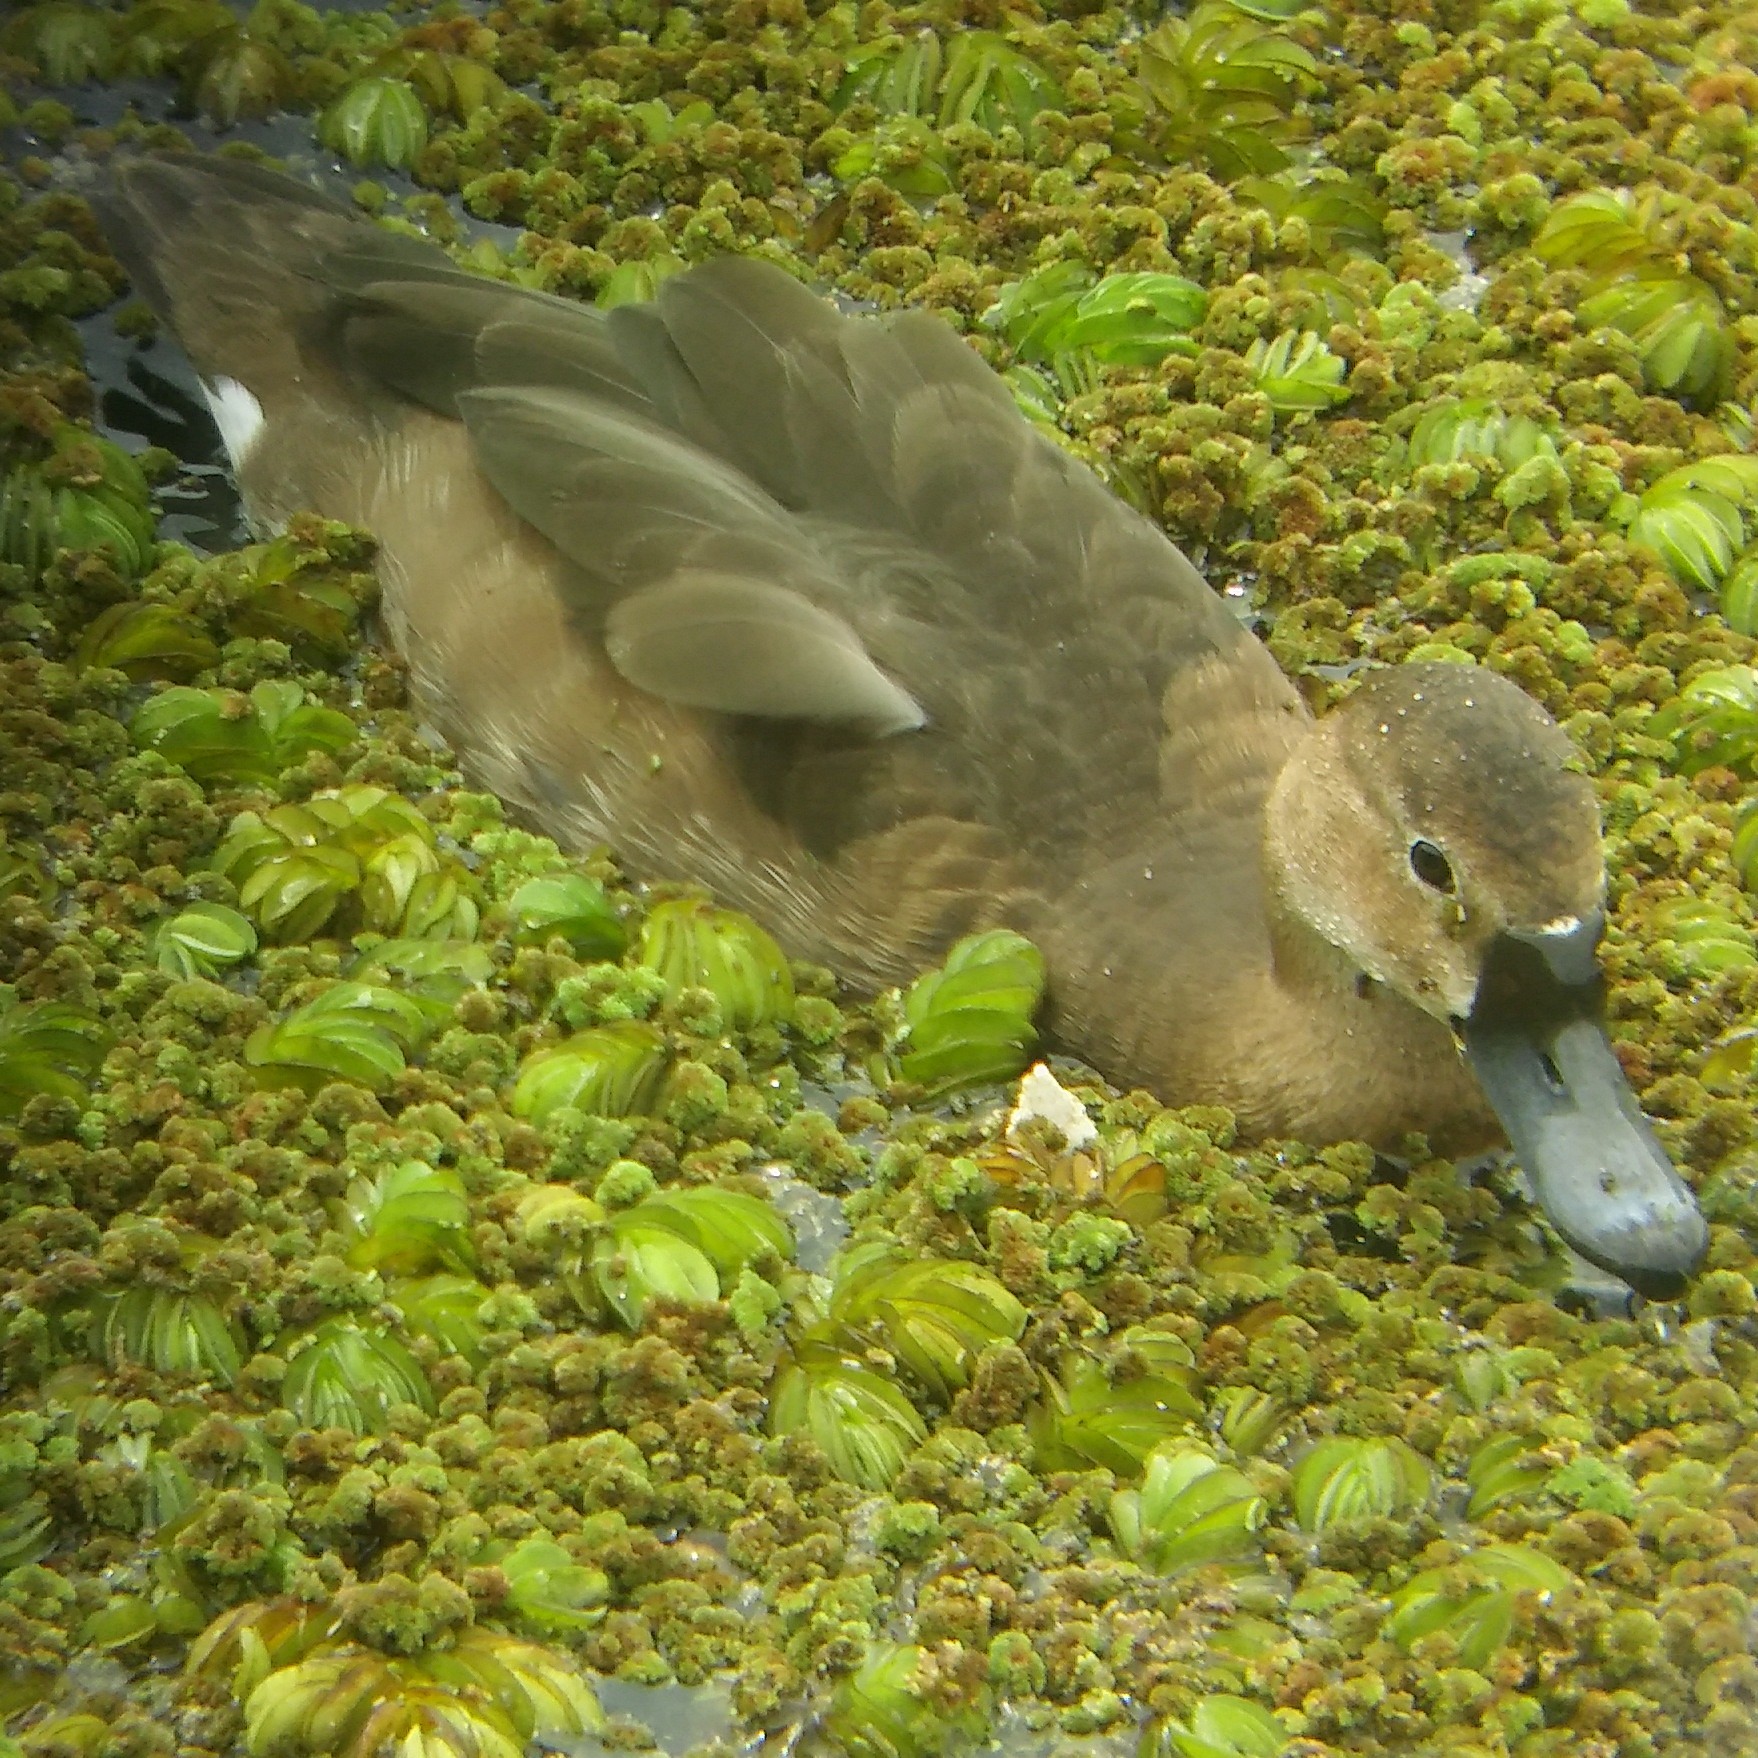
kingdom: Animalia
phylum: Chordata
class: Aves
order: Anseriformes
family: Anatidae
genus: Netta
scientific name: Netta peposaca
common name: Rosy-billed pochard
